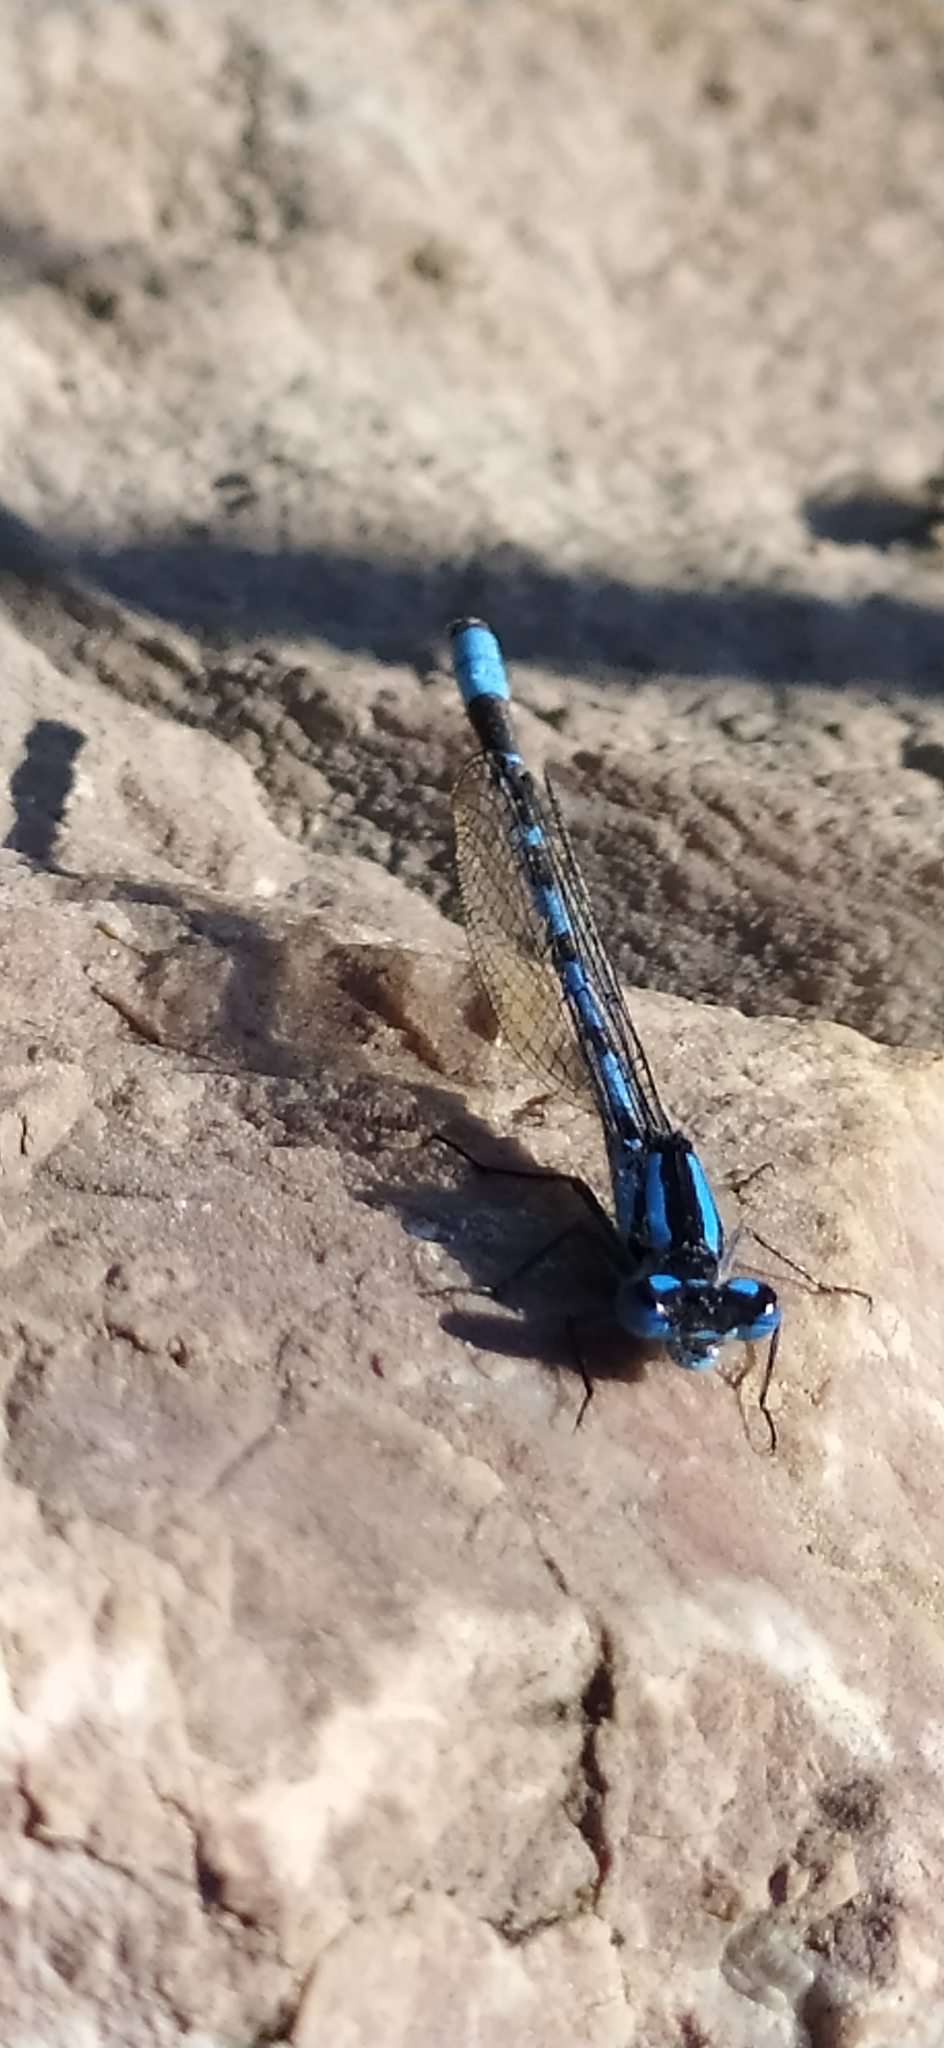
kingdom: Animalia
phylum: Arthropoda
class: Insecta
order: Odonata
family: Coenagrionidae
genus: Enallagma
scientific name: Enallagma cyathigerum
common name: Common blue damselfly
